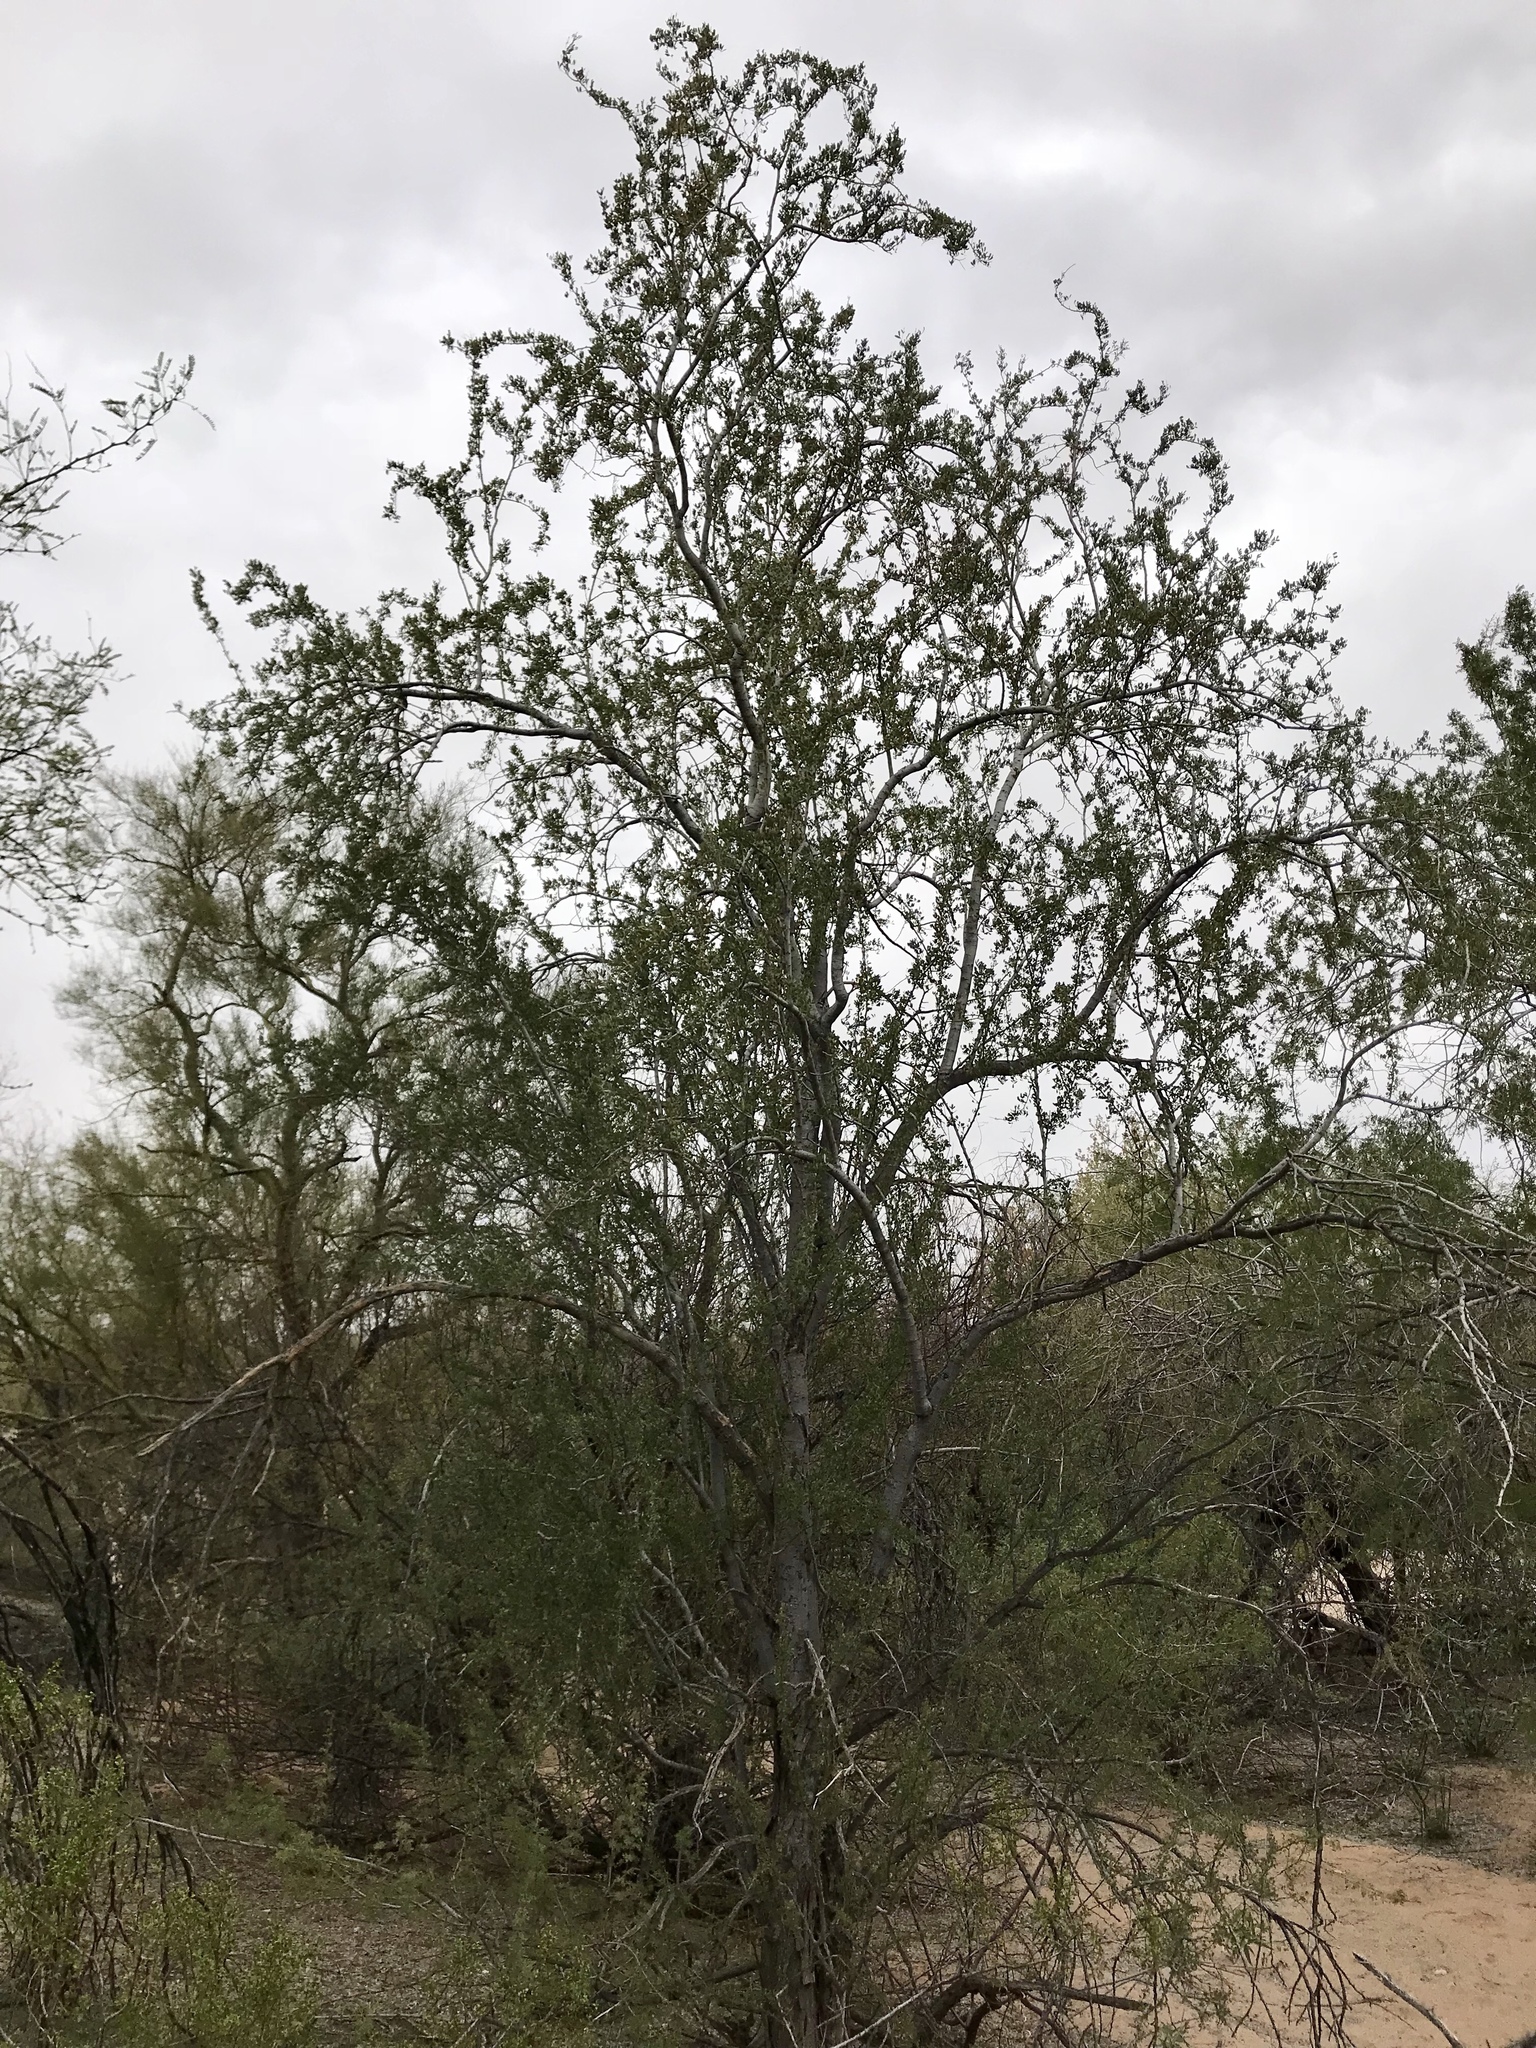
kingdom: Plantae
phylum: Tracheophyta
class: Magnoliopsida
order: Fabales
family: Fabaceae
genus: Olneya
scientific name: Olneya tesota
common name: Desert ironwood
